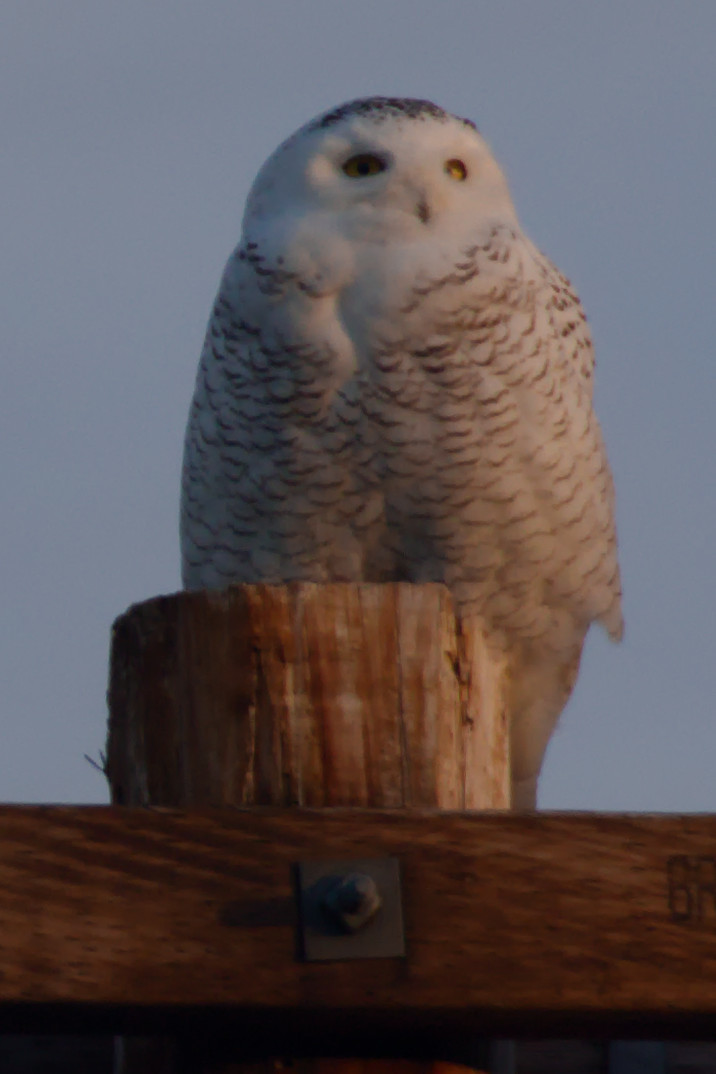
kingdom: Animalia
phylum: Chordata
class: Aves
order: Strigiformes
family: Strigidae
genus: Bubo
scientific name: Bubo scandiacus
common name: Snowy owl
